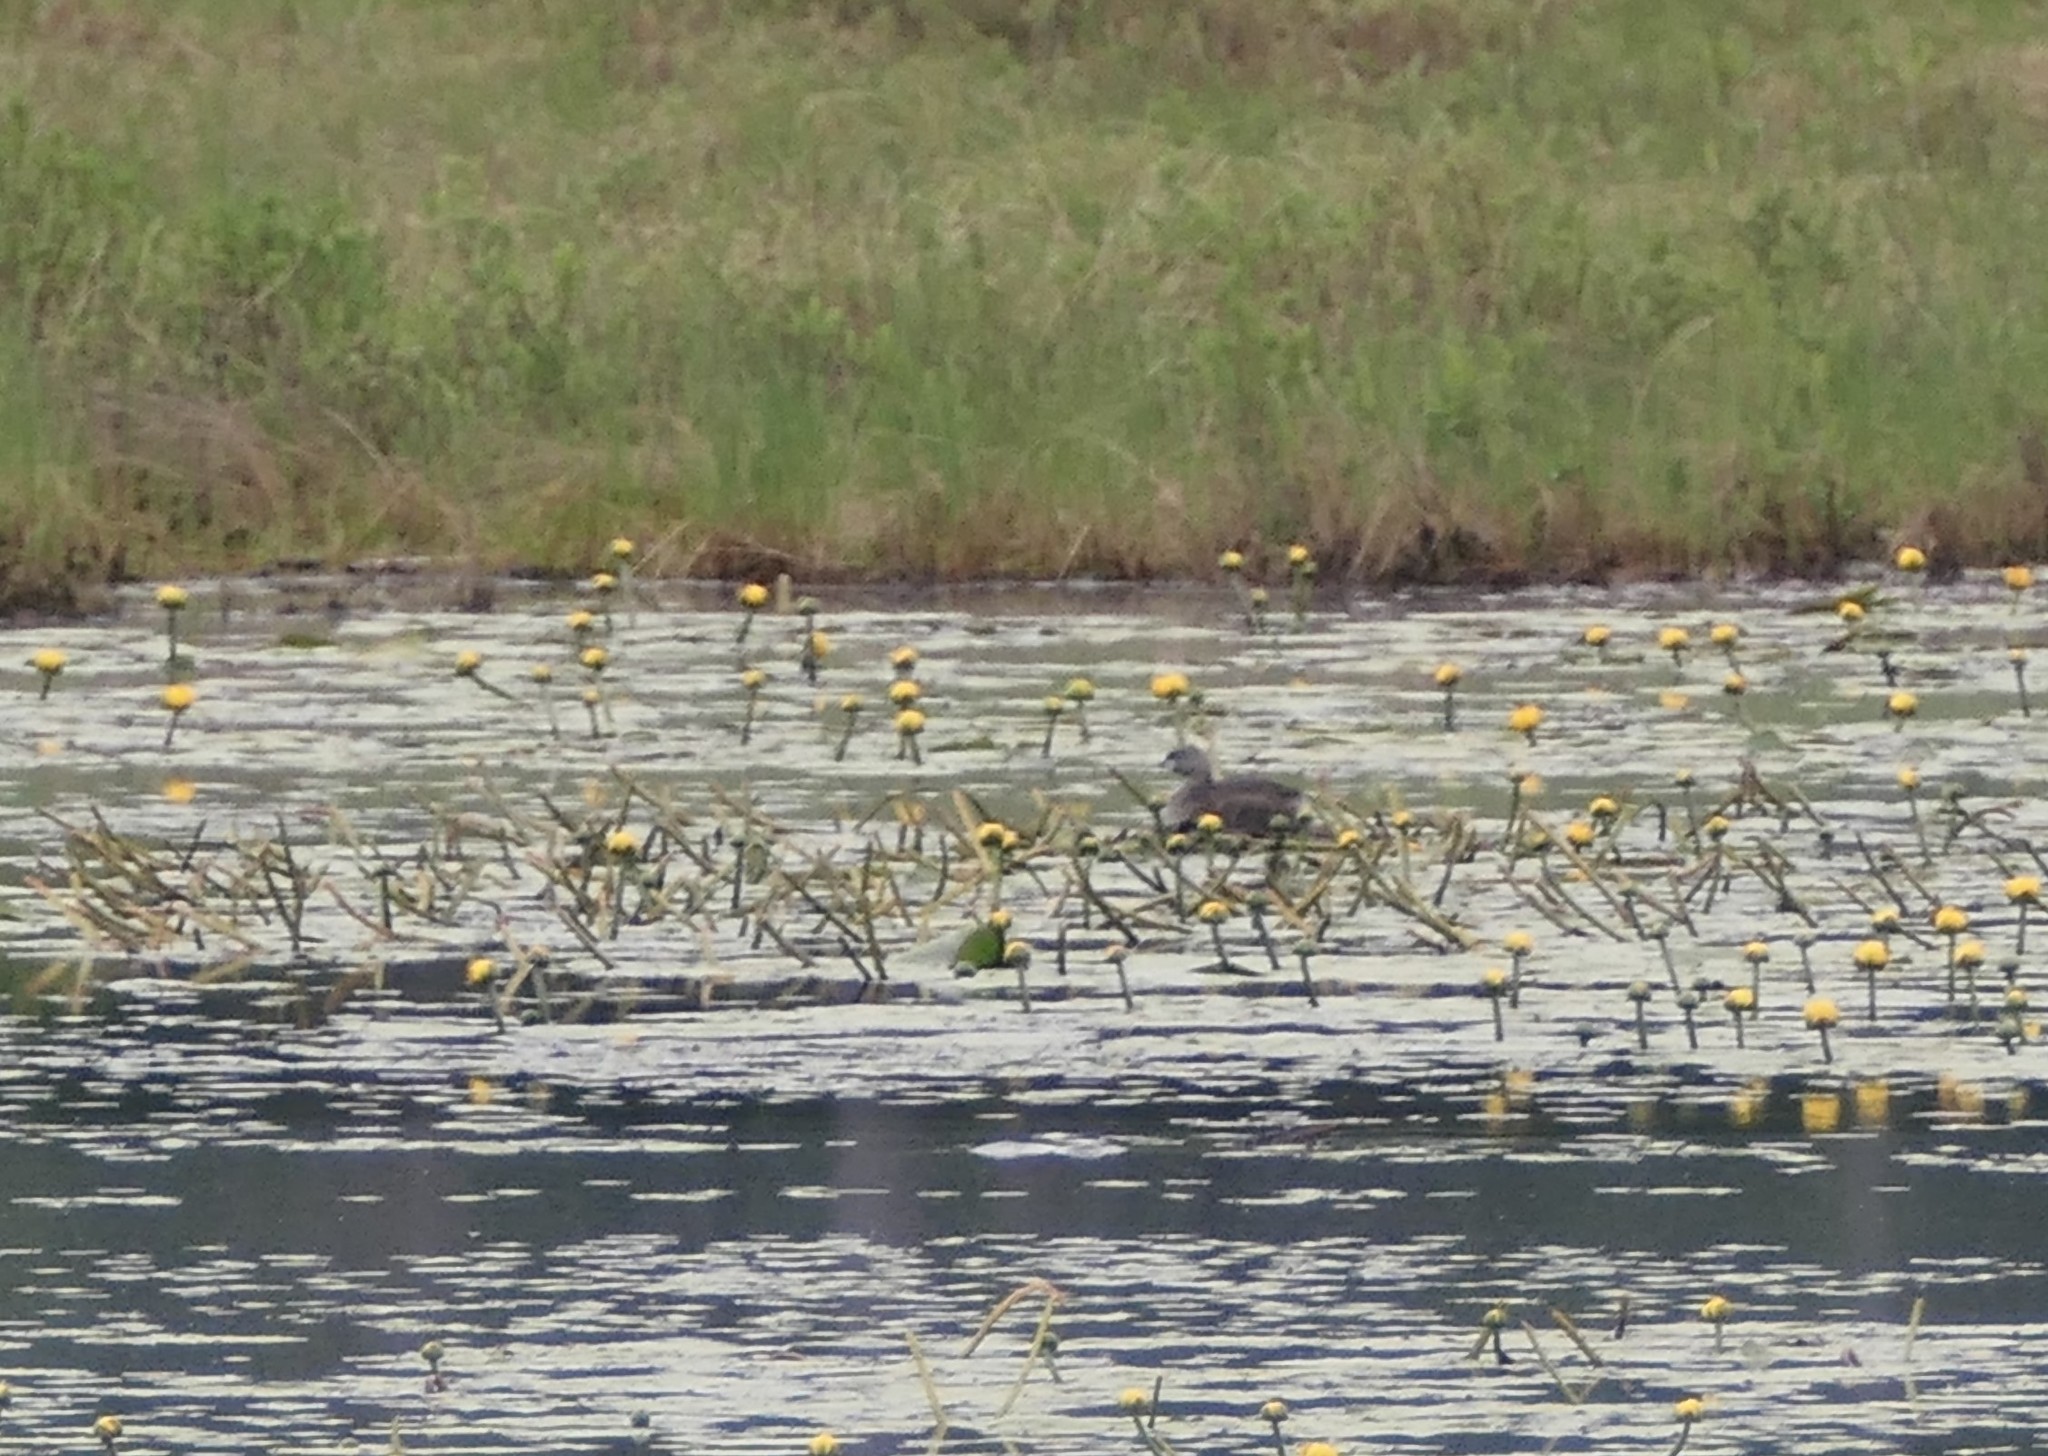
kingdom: Animalia
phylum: Chordata
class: Aves
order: Podicipediformes
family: Podicipedidae
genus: Podilymbus
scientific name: Podilymbus podiceps
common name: Pied-billed grebe
